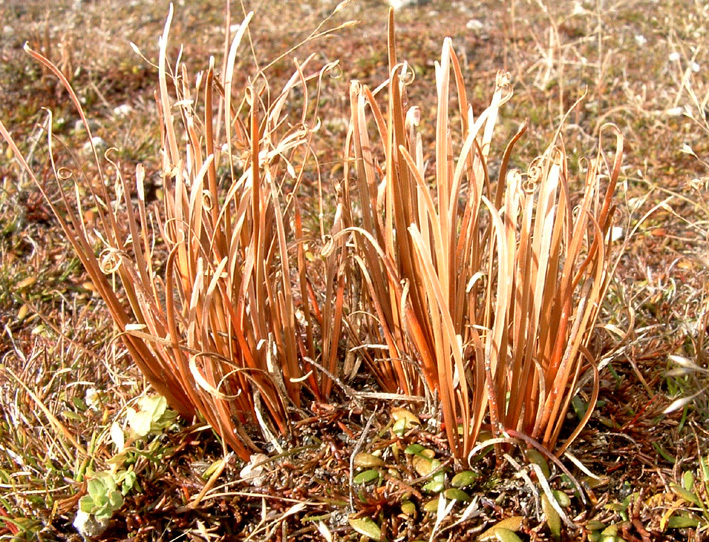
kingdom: Plantae
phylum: Tracheophyta
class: Liliopsida
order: Poales
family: Cyperaceae
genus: Carex
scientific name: Carex rubicunda
